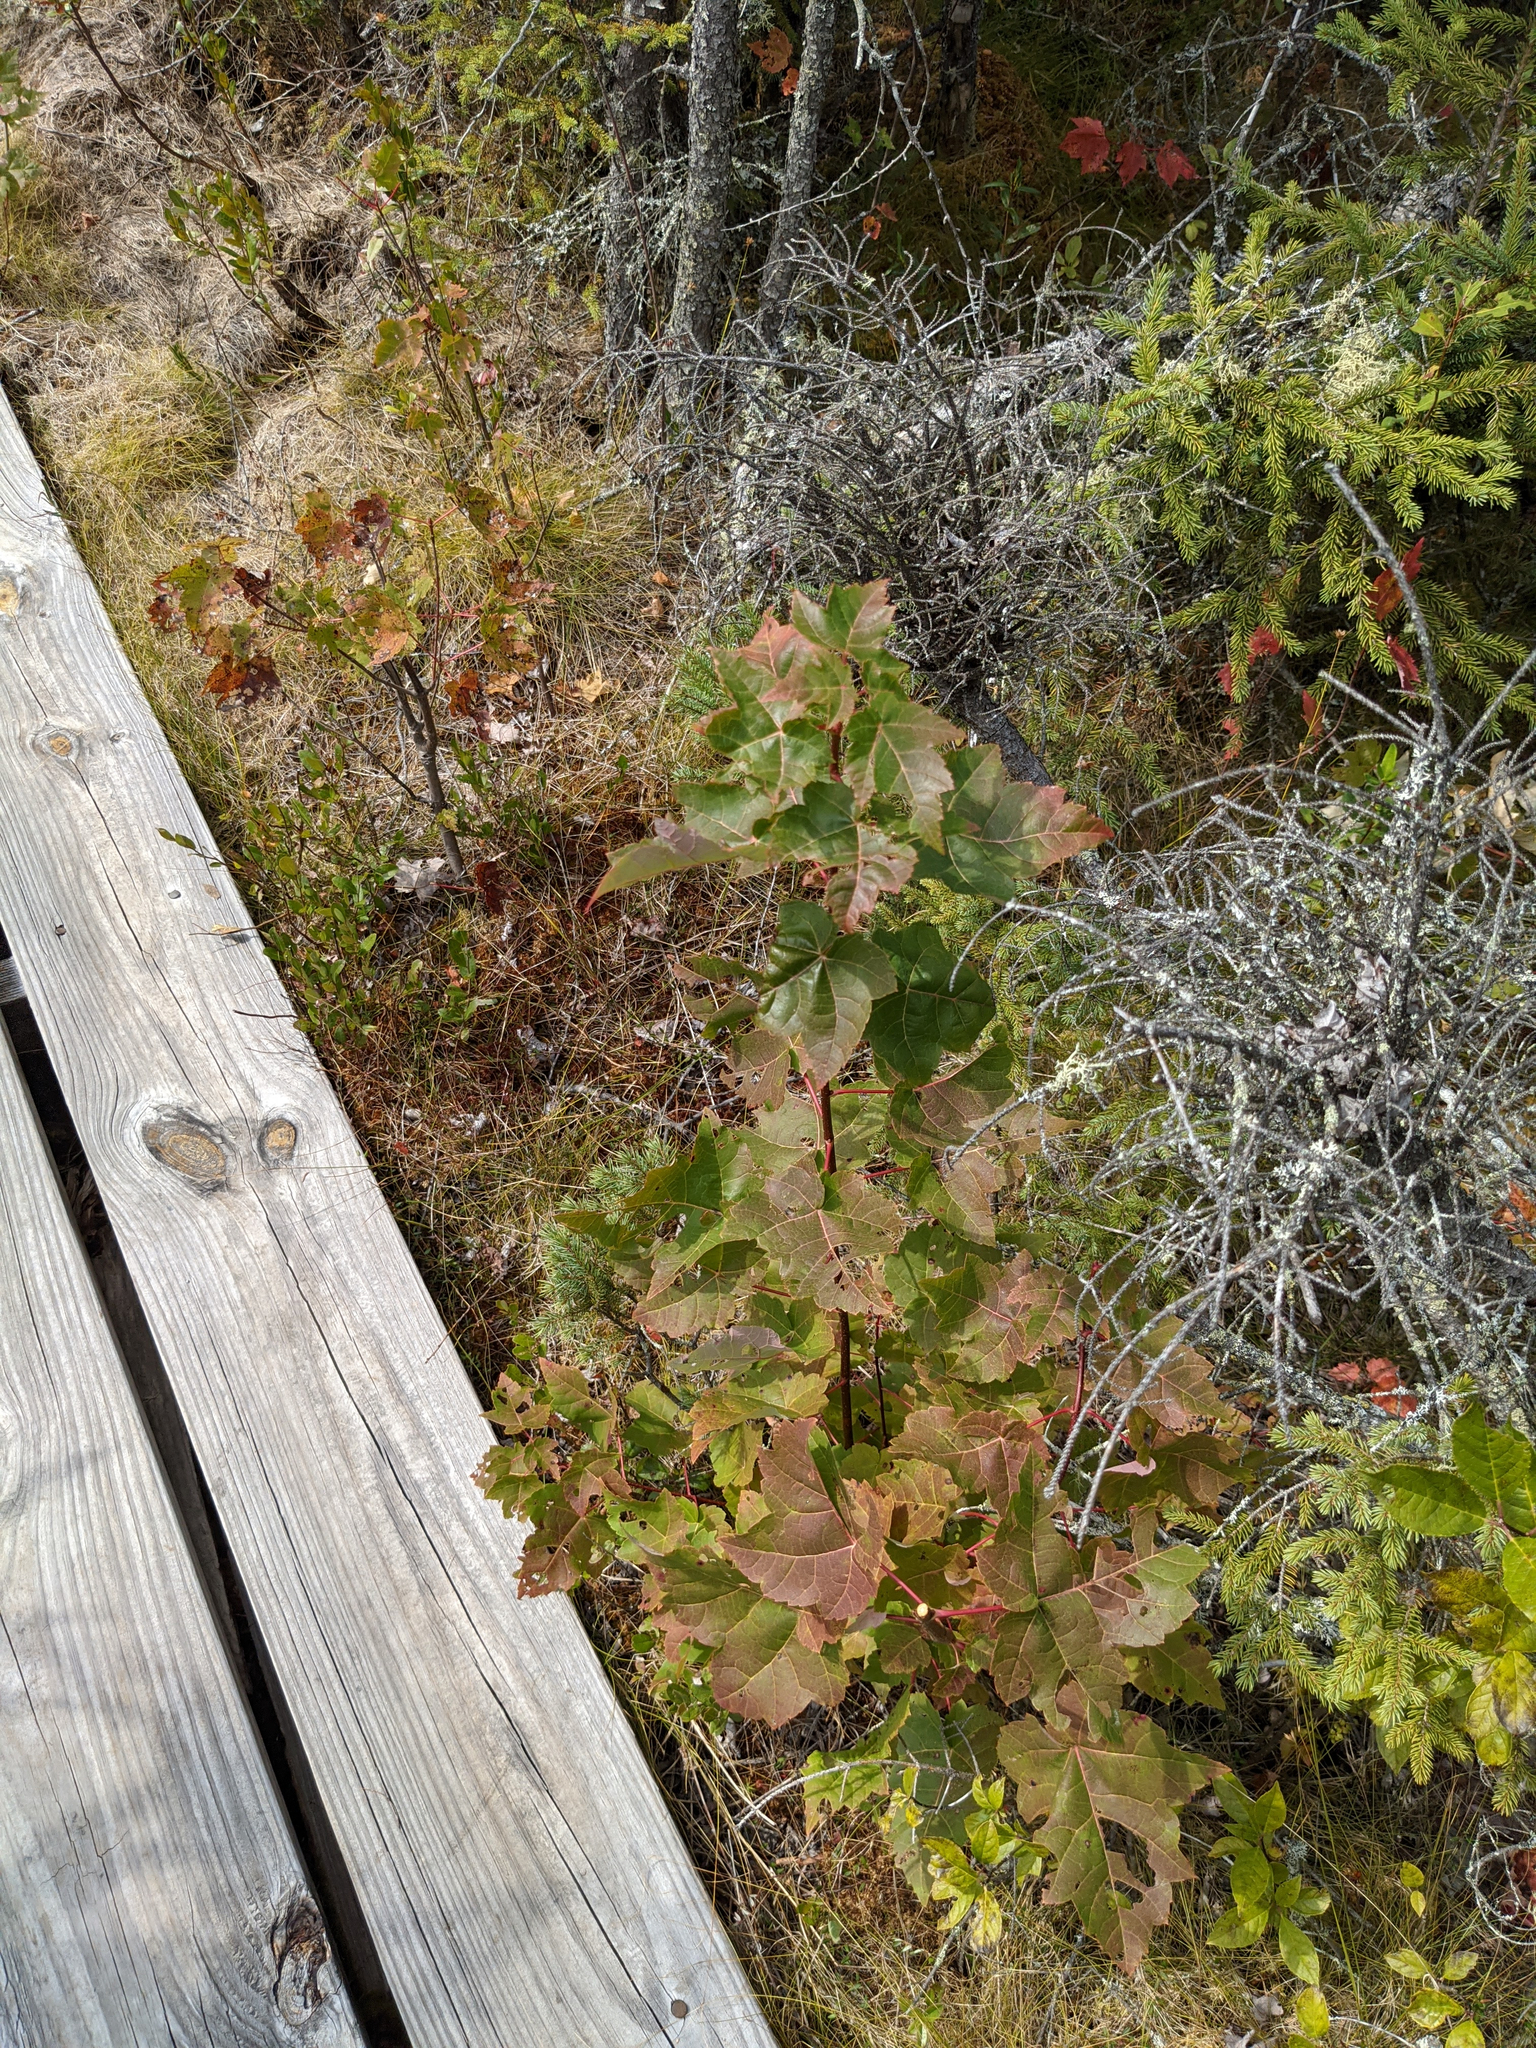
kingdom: Plantae
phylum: Tracheophyta
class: Magnoliopsida
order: Sapindales
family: Sapindaceae
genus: Acer
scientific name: Acer rubrum
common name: Red maple
